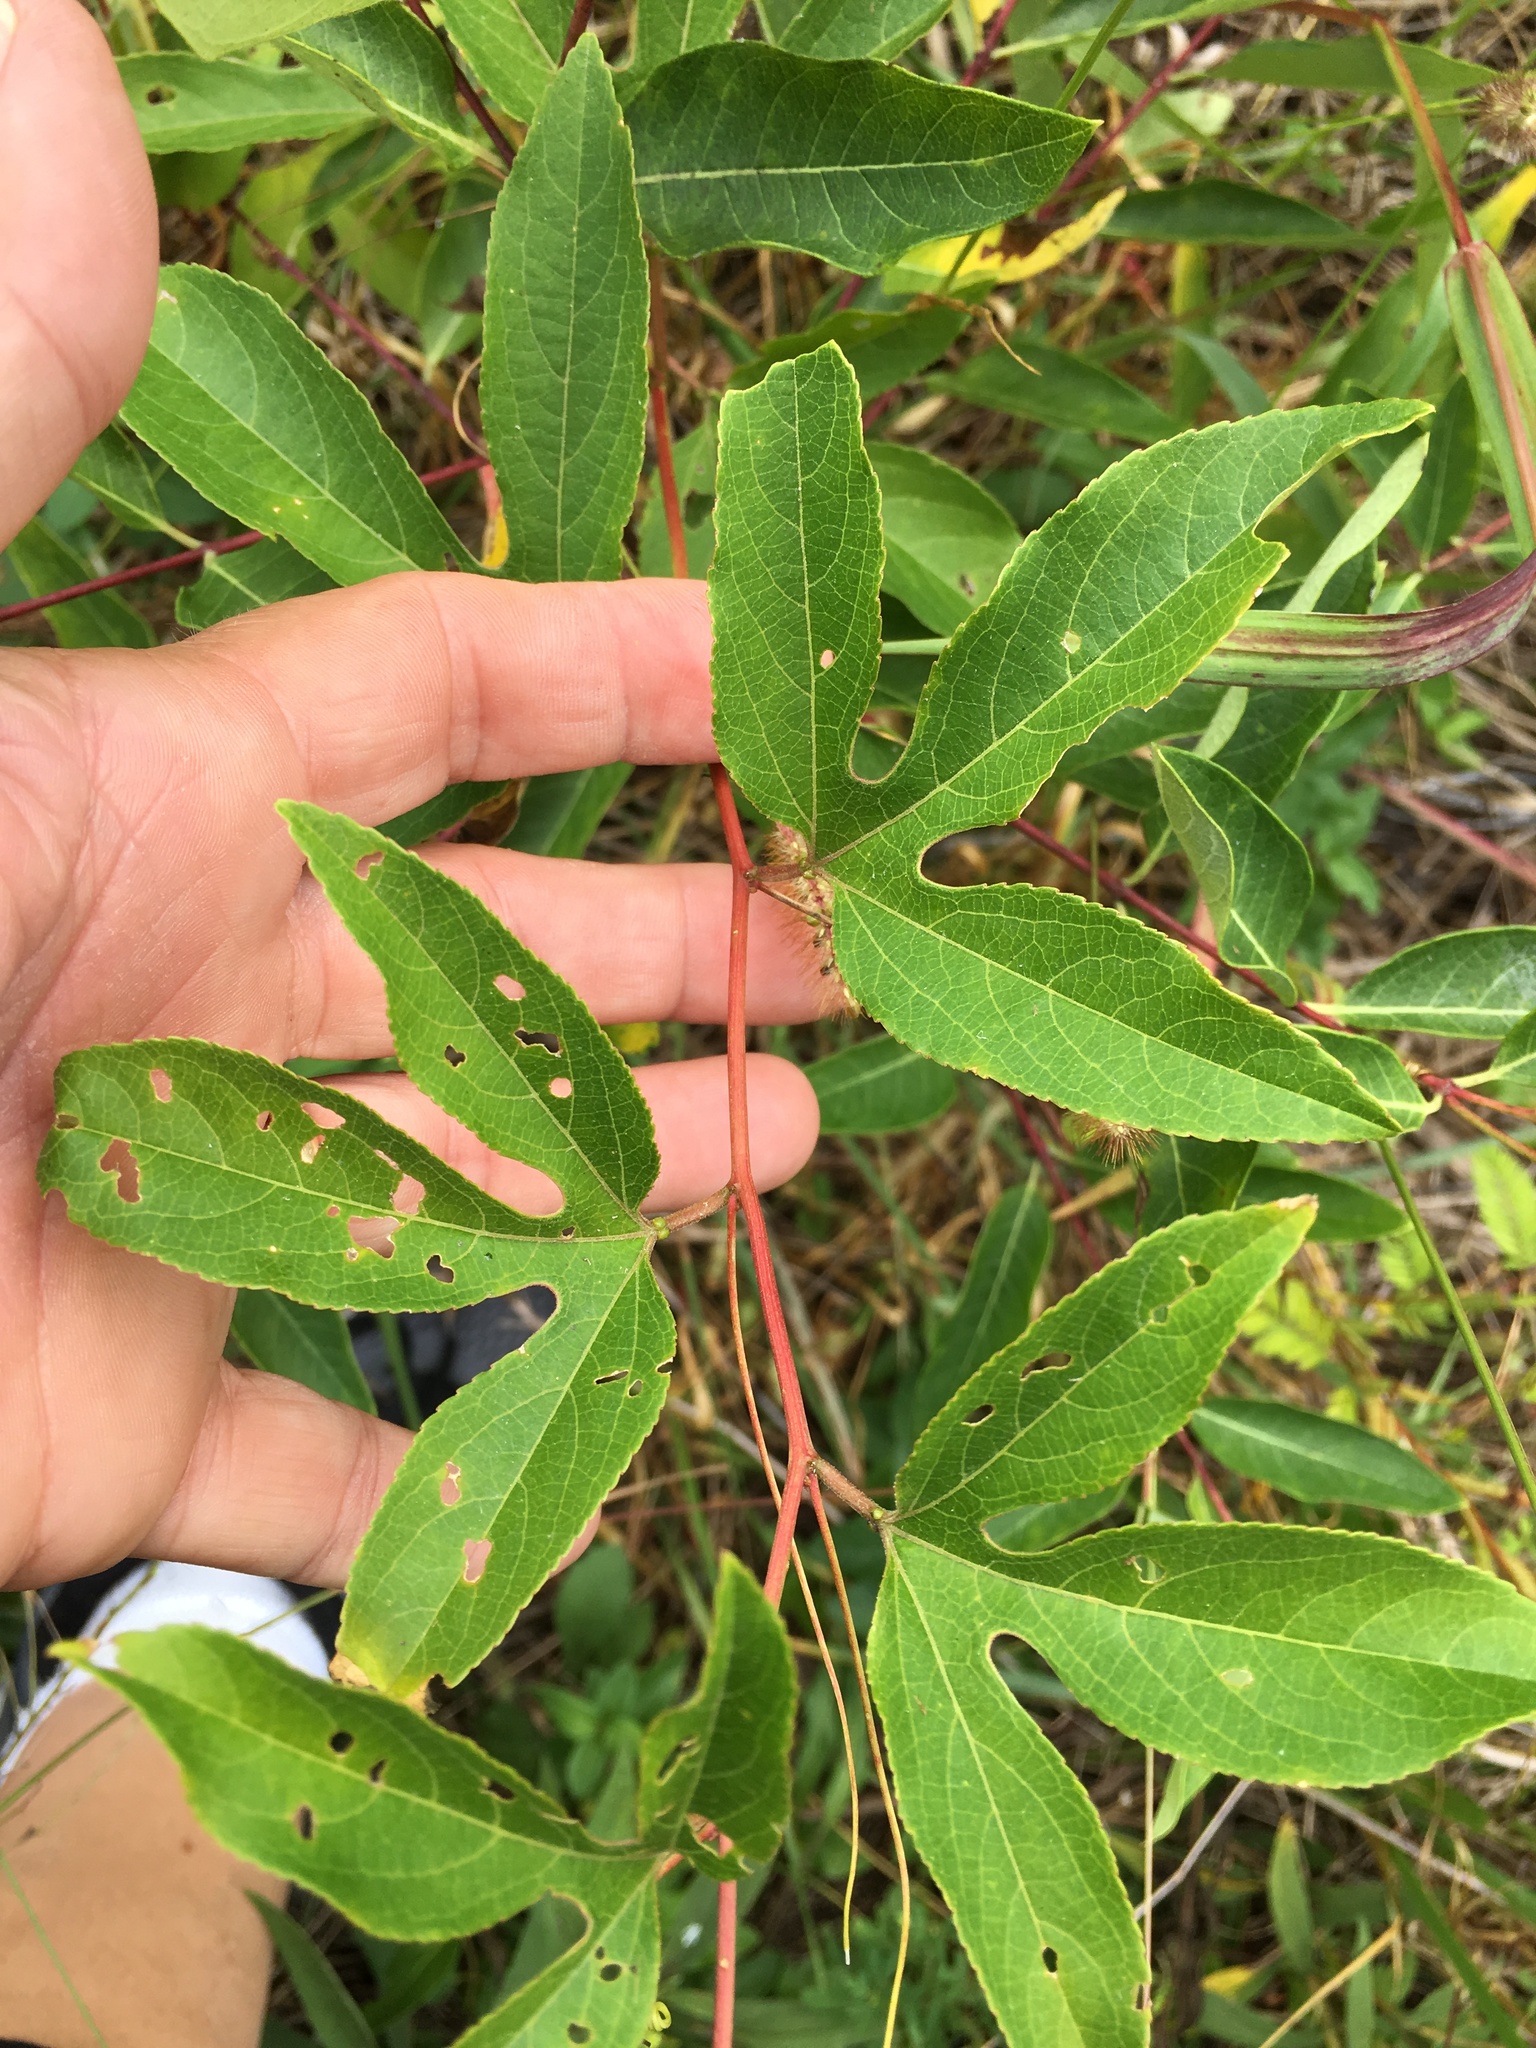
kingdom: Plantae
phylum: Tracheophyta
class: Magnoliopsida
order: Malpighiales
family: Passifloraceae
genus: Passiflora
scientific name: Passiflora incarnata
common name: Apricot-vine
